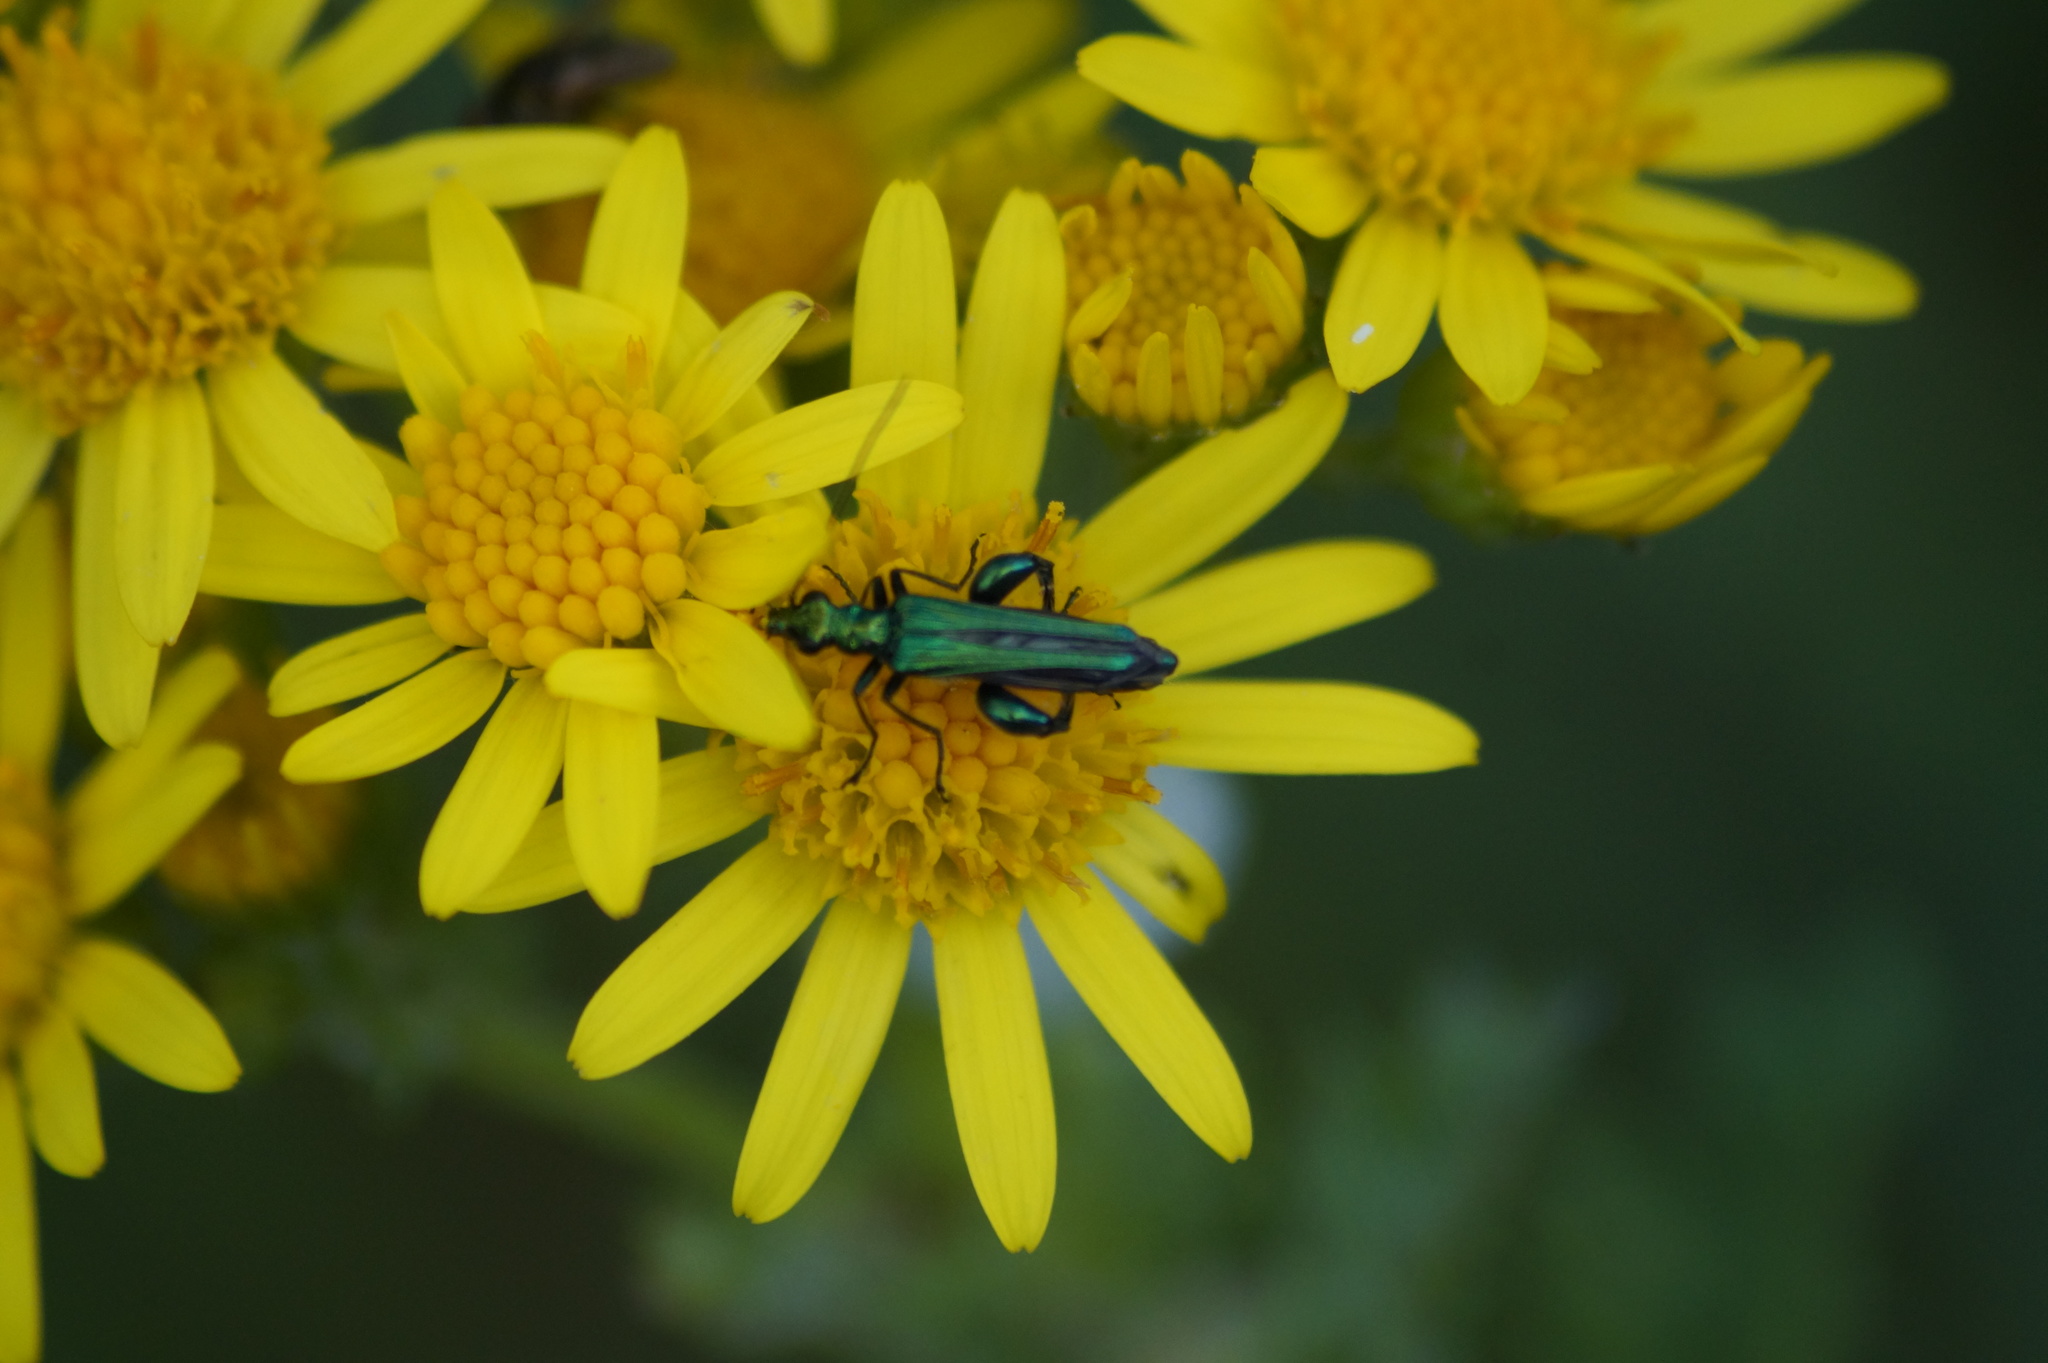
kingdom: Animalia
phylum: Arthropoda
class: Insecta
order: Coleoptera
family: Oedemeridae
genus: Oedemera
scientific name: Oedemera nobilis
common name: Swollen-thighed beetle
